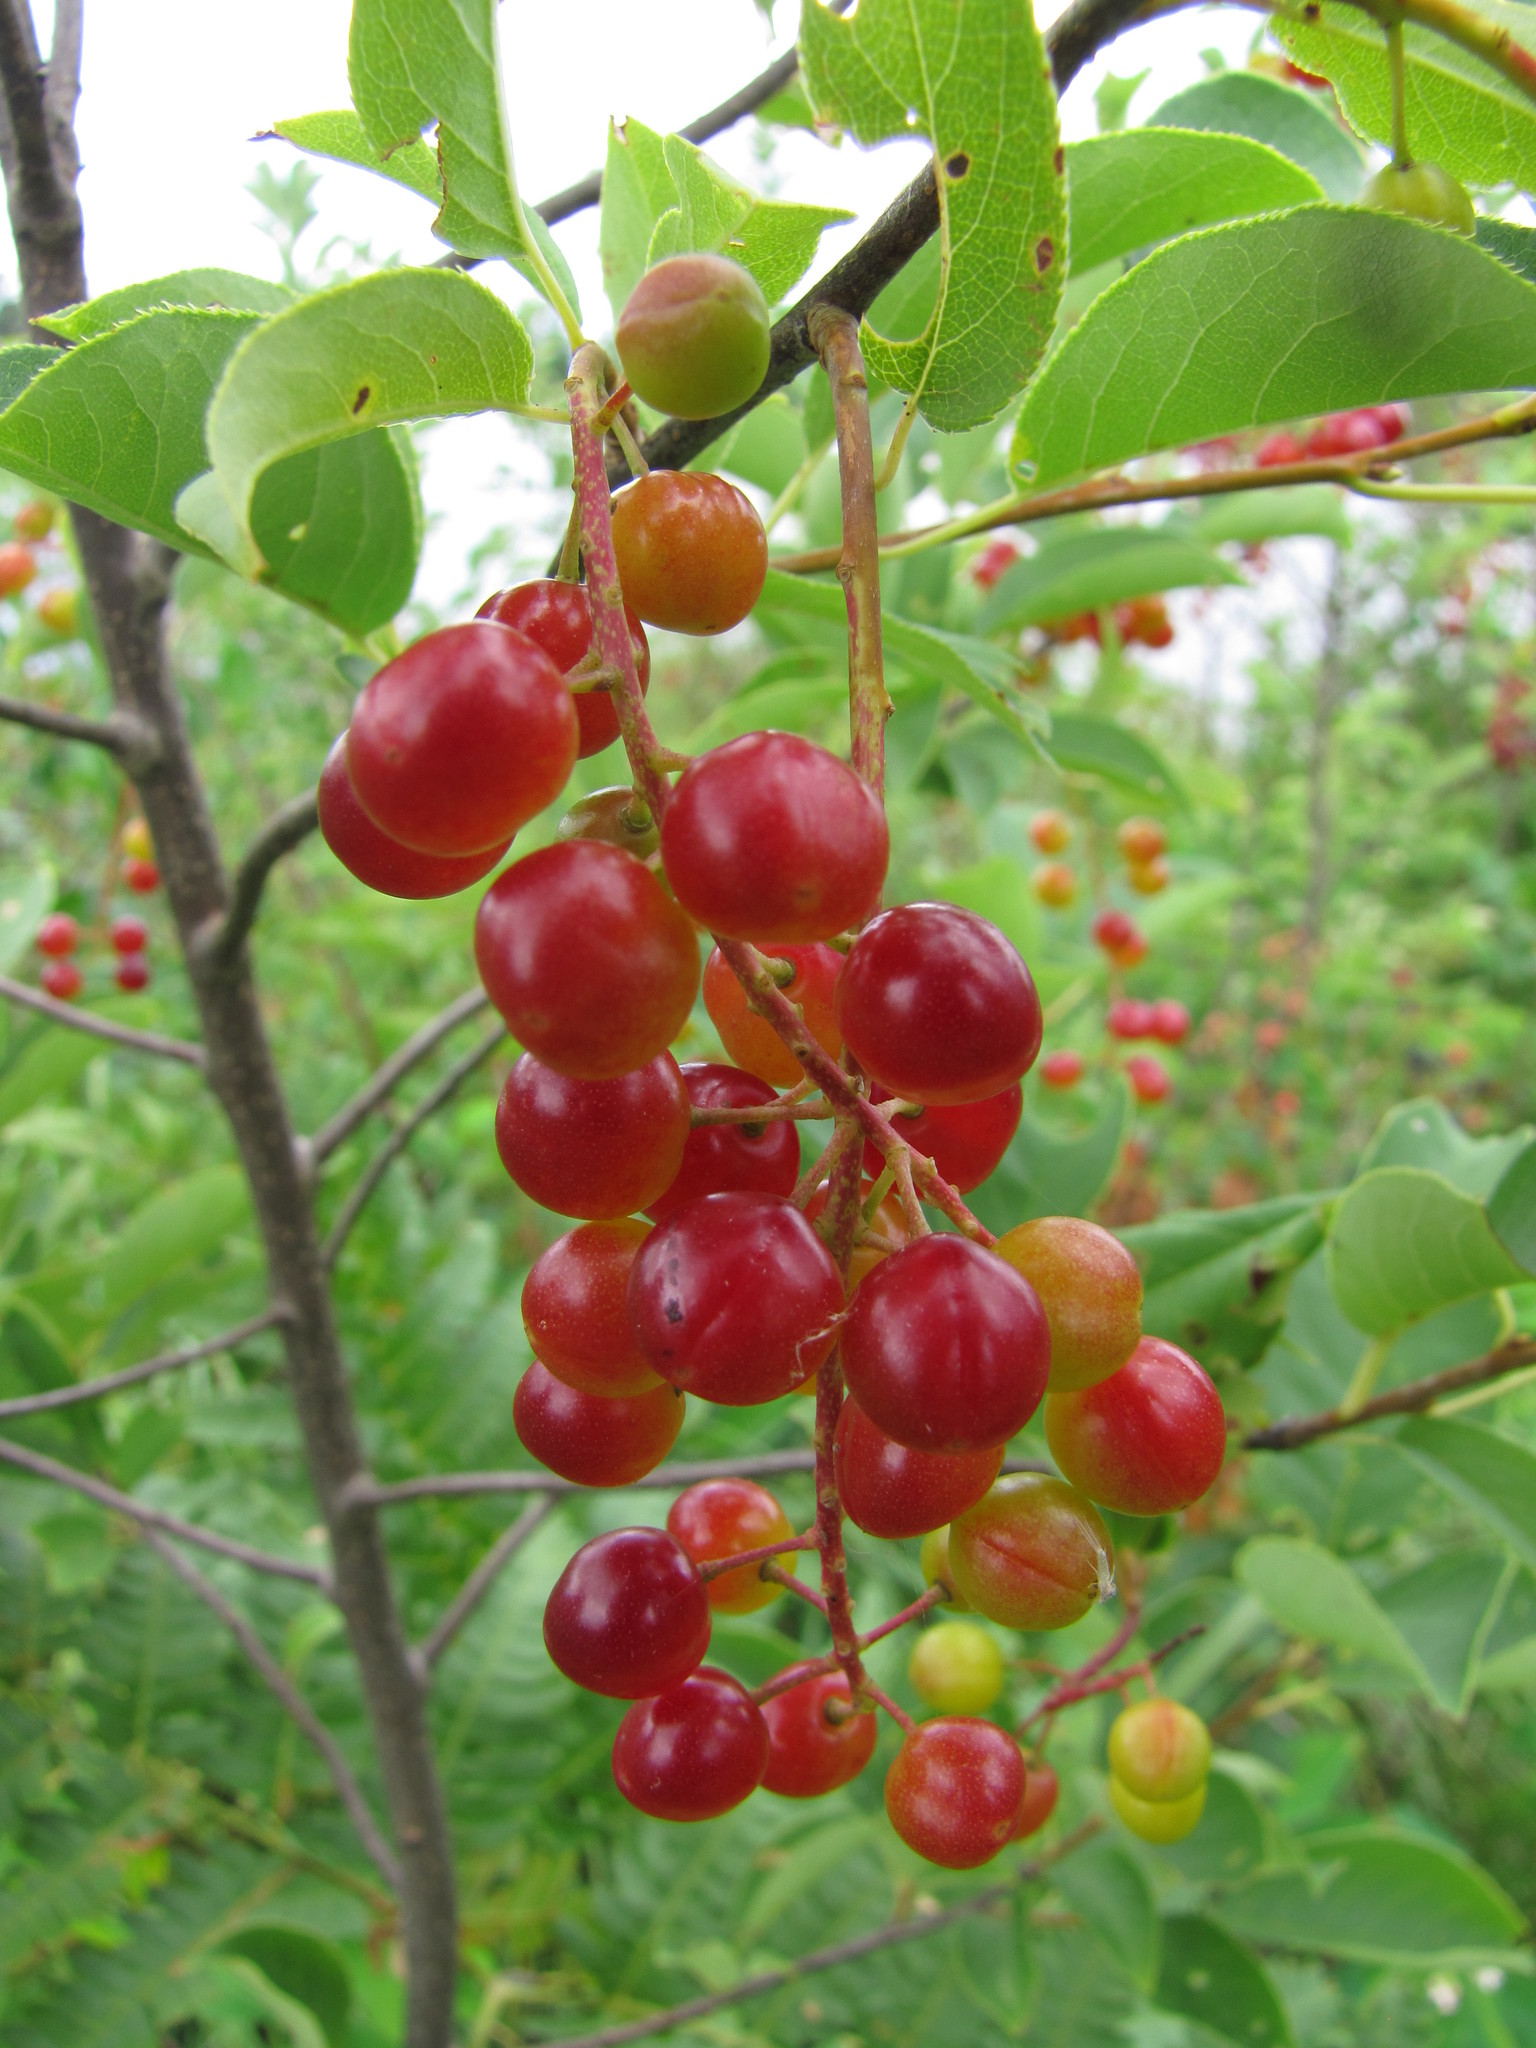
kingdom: Plantae
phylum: Tracheophyta
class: Magnoliopsida
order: Rosales
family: Rosaceae
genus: Prunus
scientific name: Prunus virginiana
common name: Chokecherry
